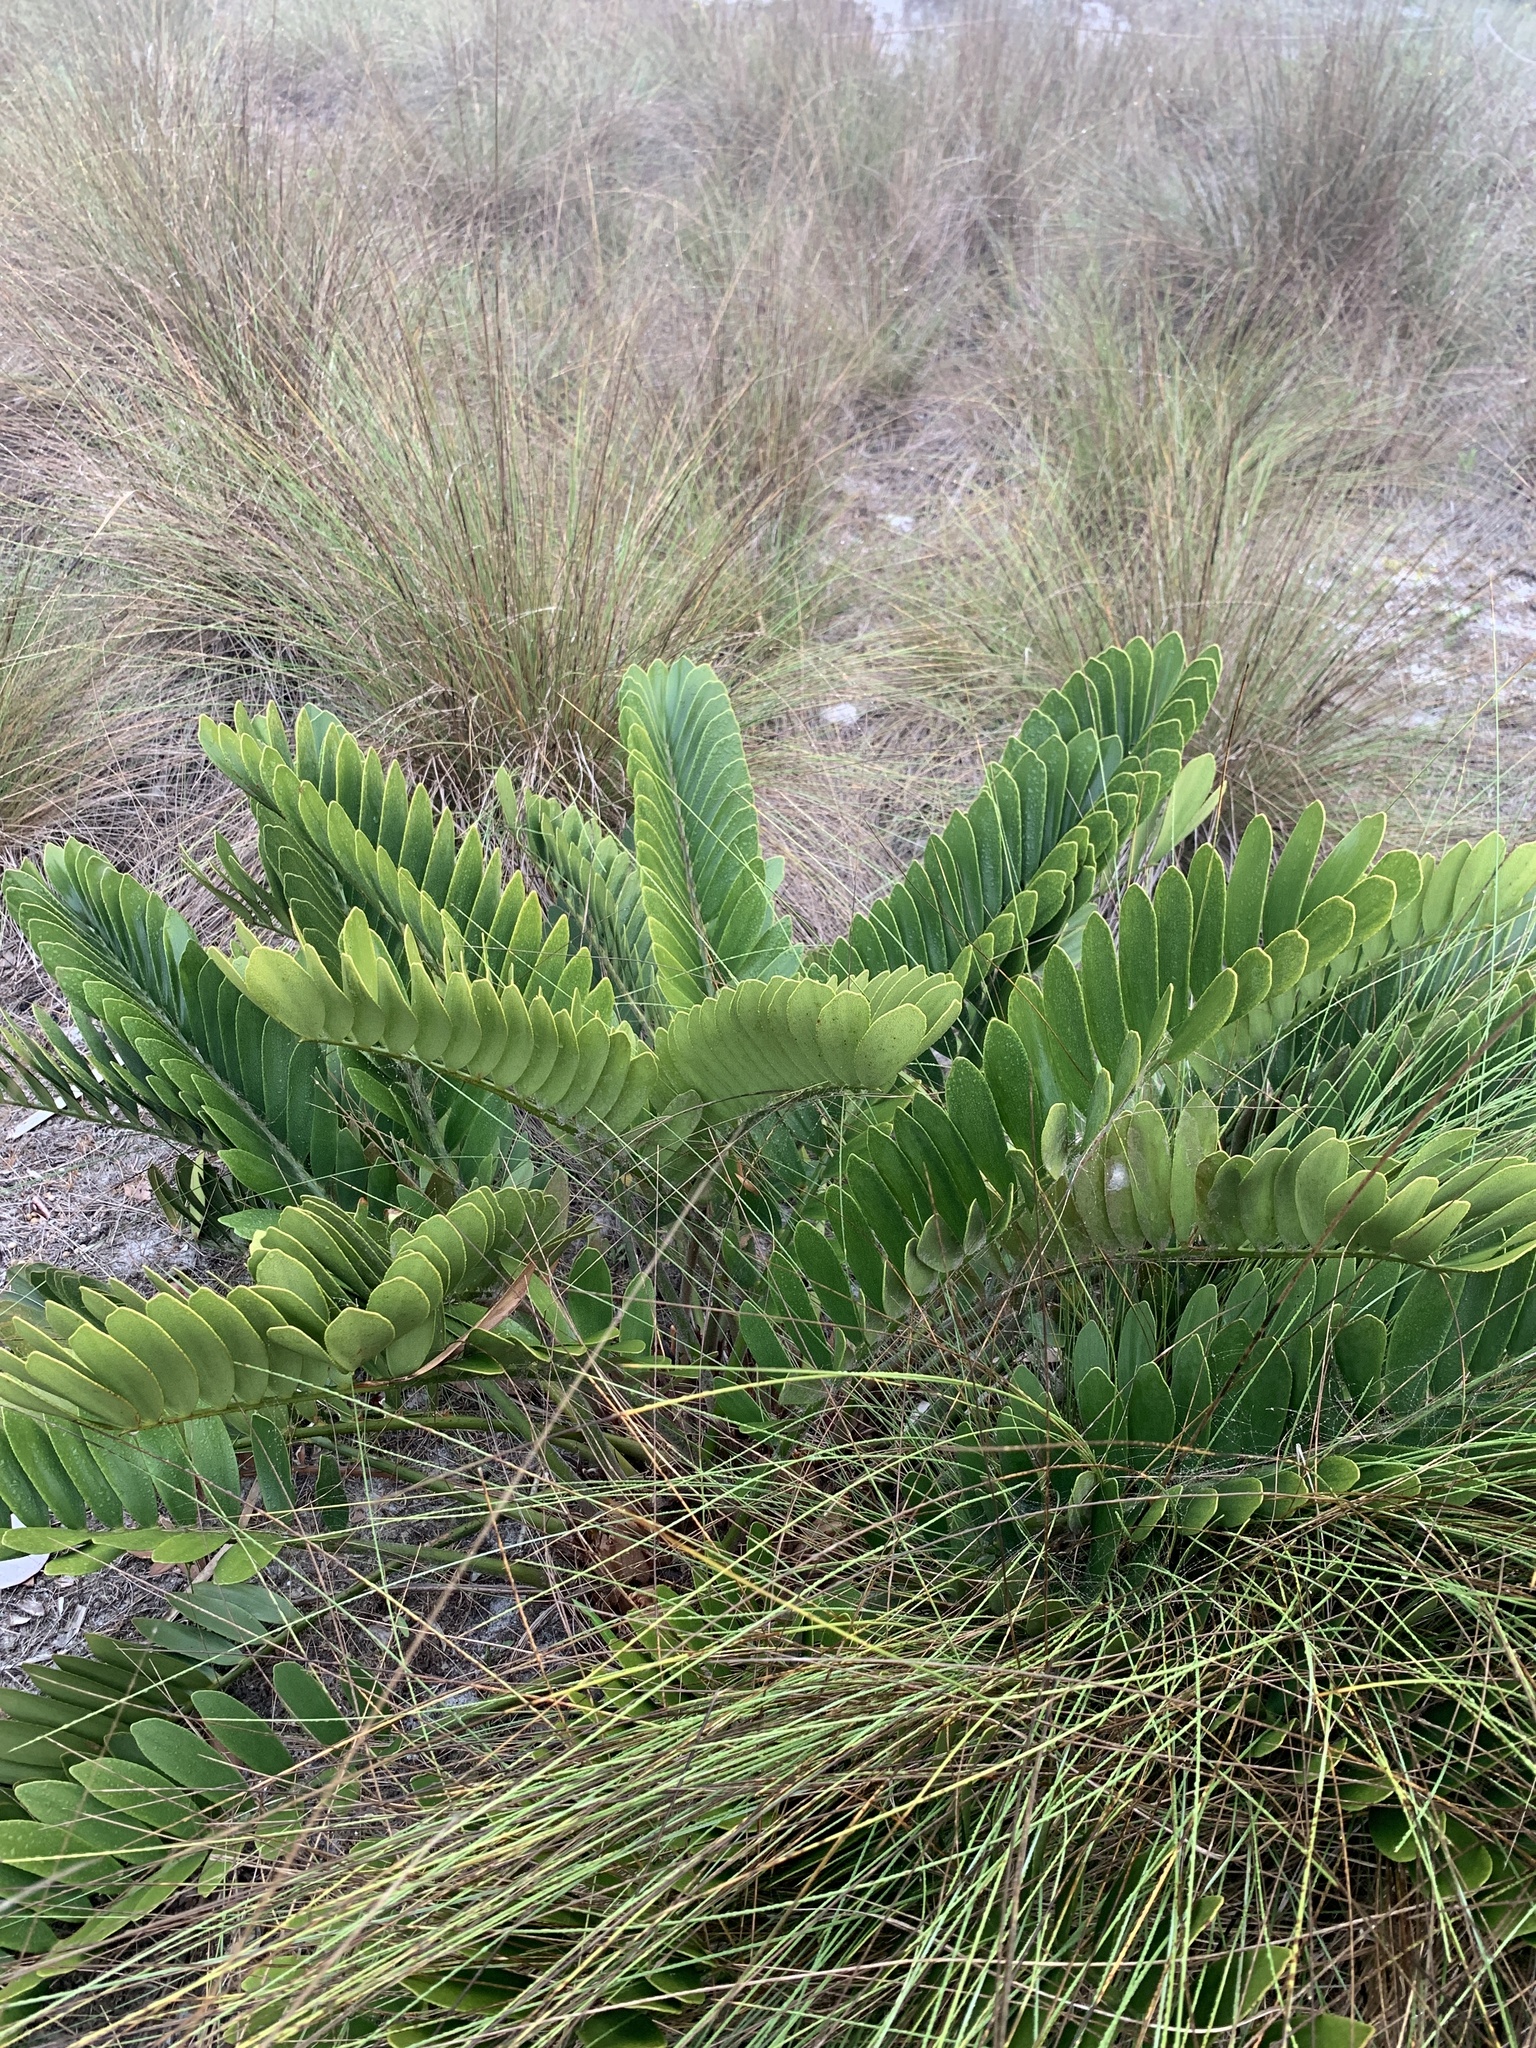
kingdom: Plantae
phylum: Tracheophyta
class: Cycadopsida
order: Cycadales
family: Zamiaceae
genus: Zamia
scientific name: Zamia furfuracea
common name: Cardboard palm
